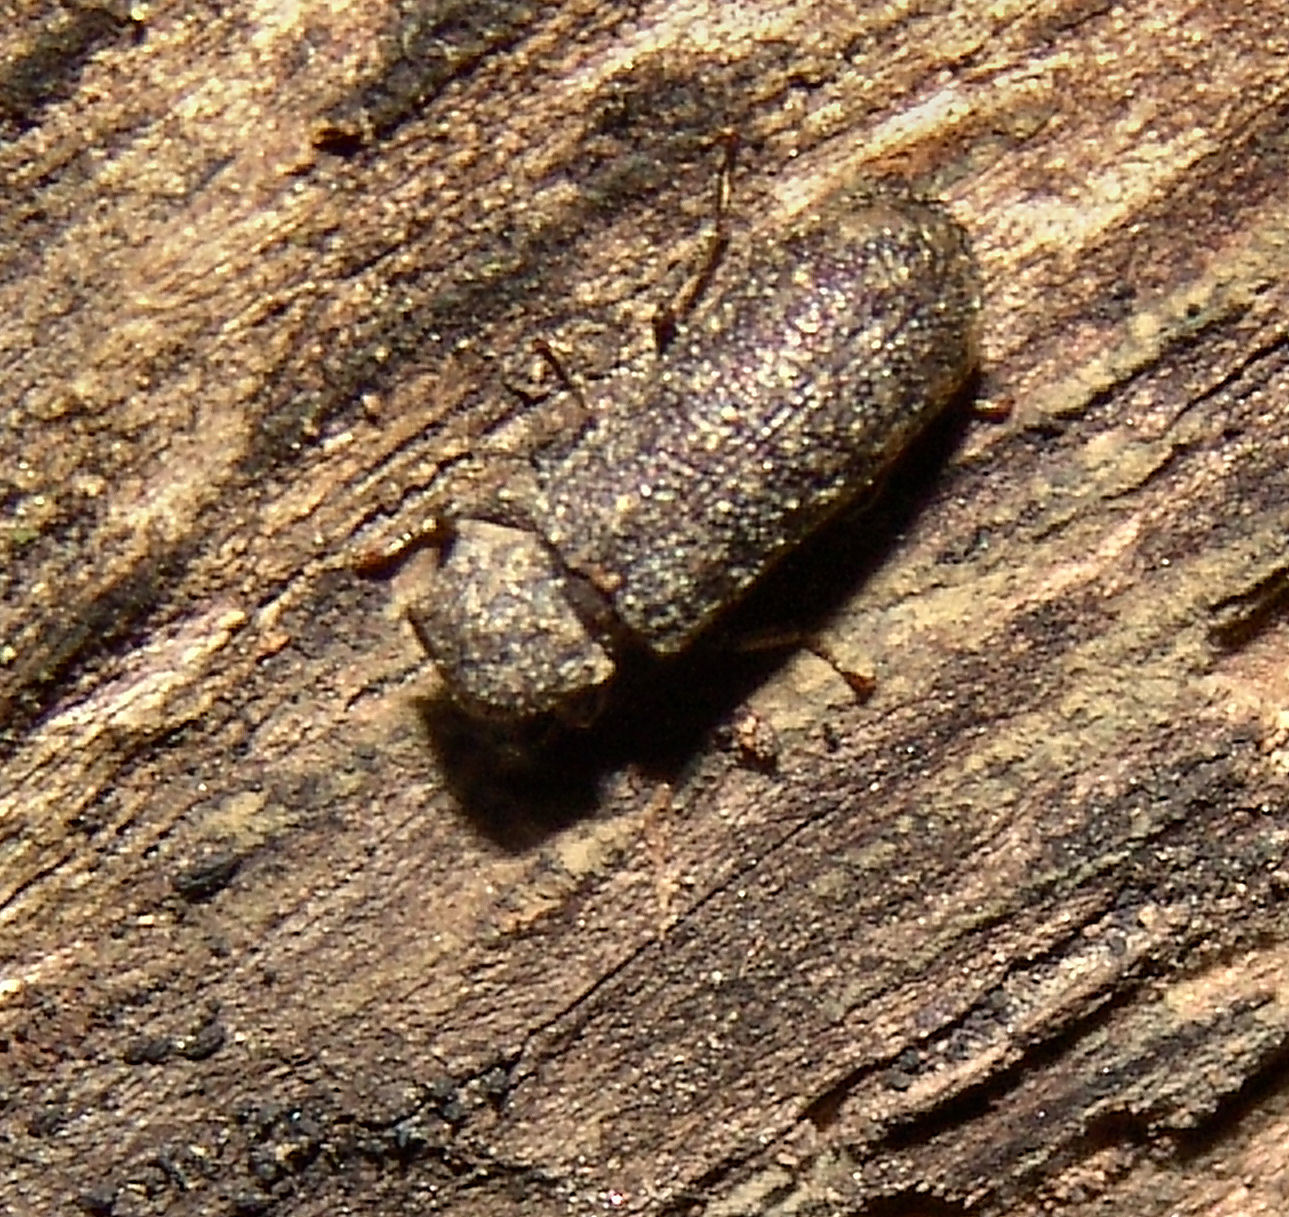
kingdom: Animalia
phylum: Arthropoda
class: Insecta
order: Coleoptera
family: Bostrichidae
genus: Lichenophanes
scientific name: Lichenophanes truncaticollis
